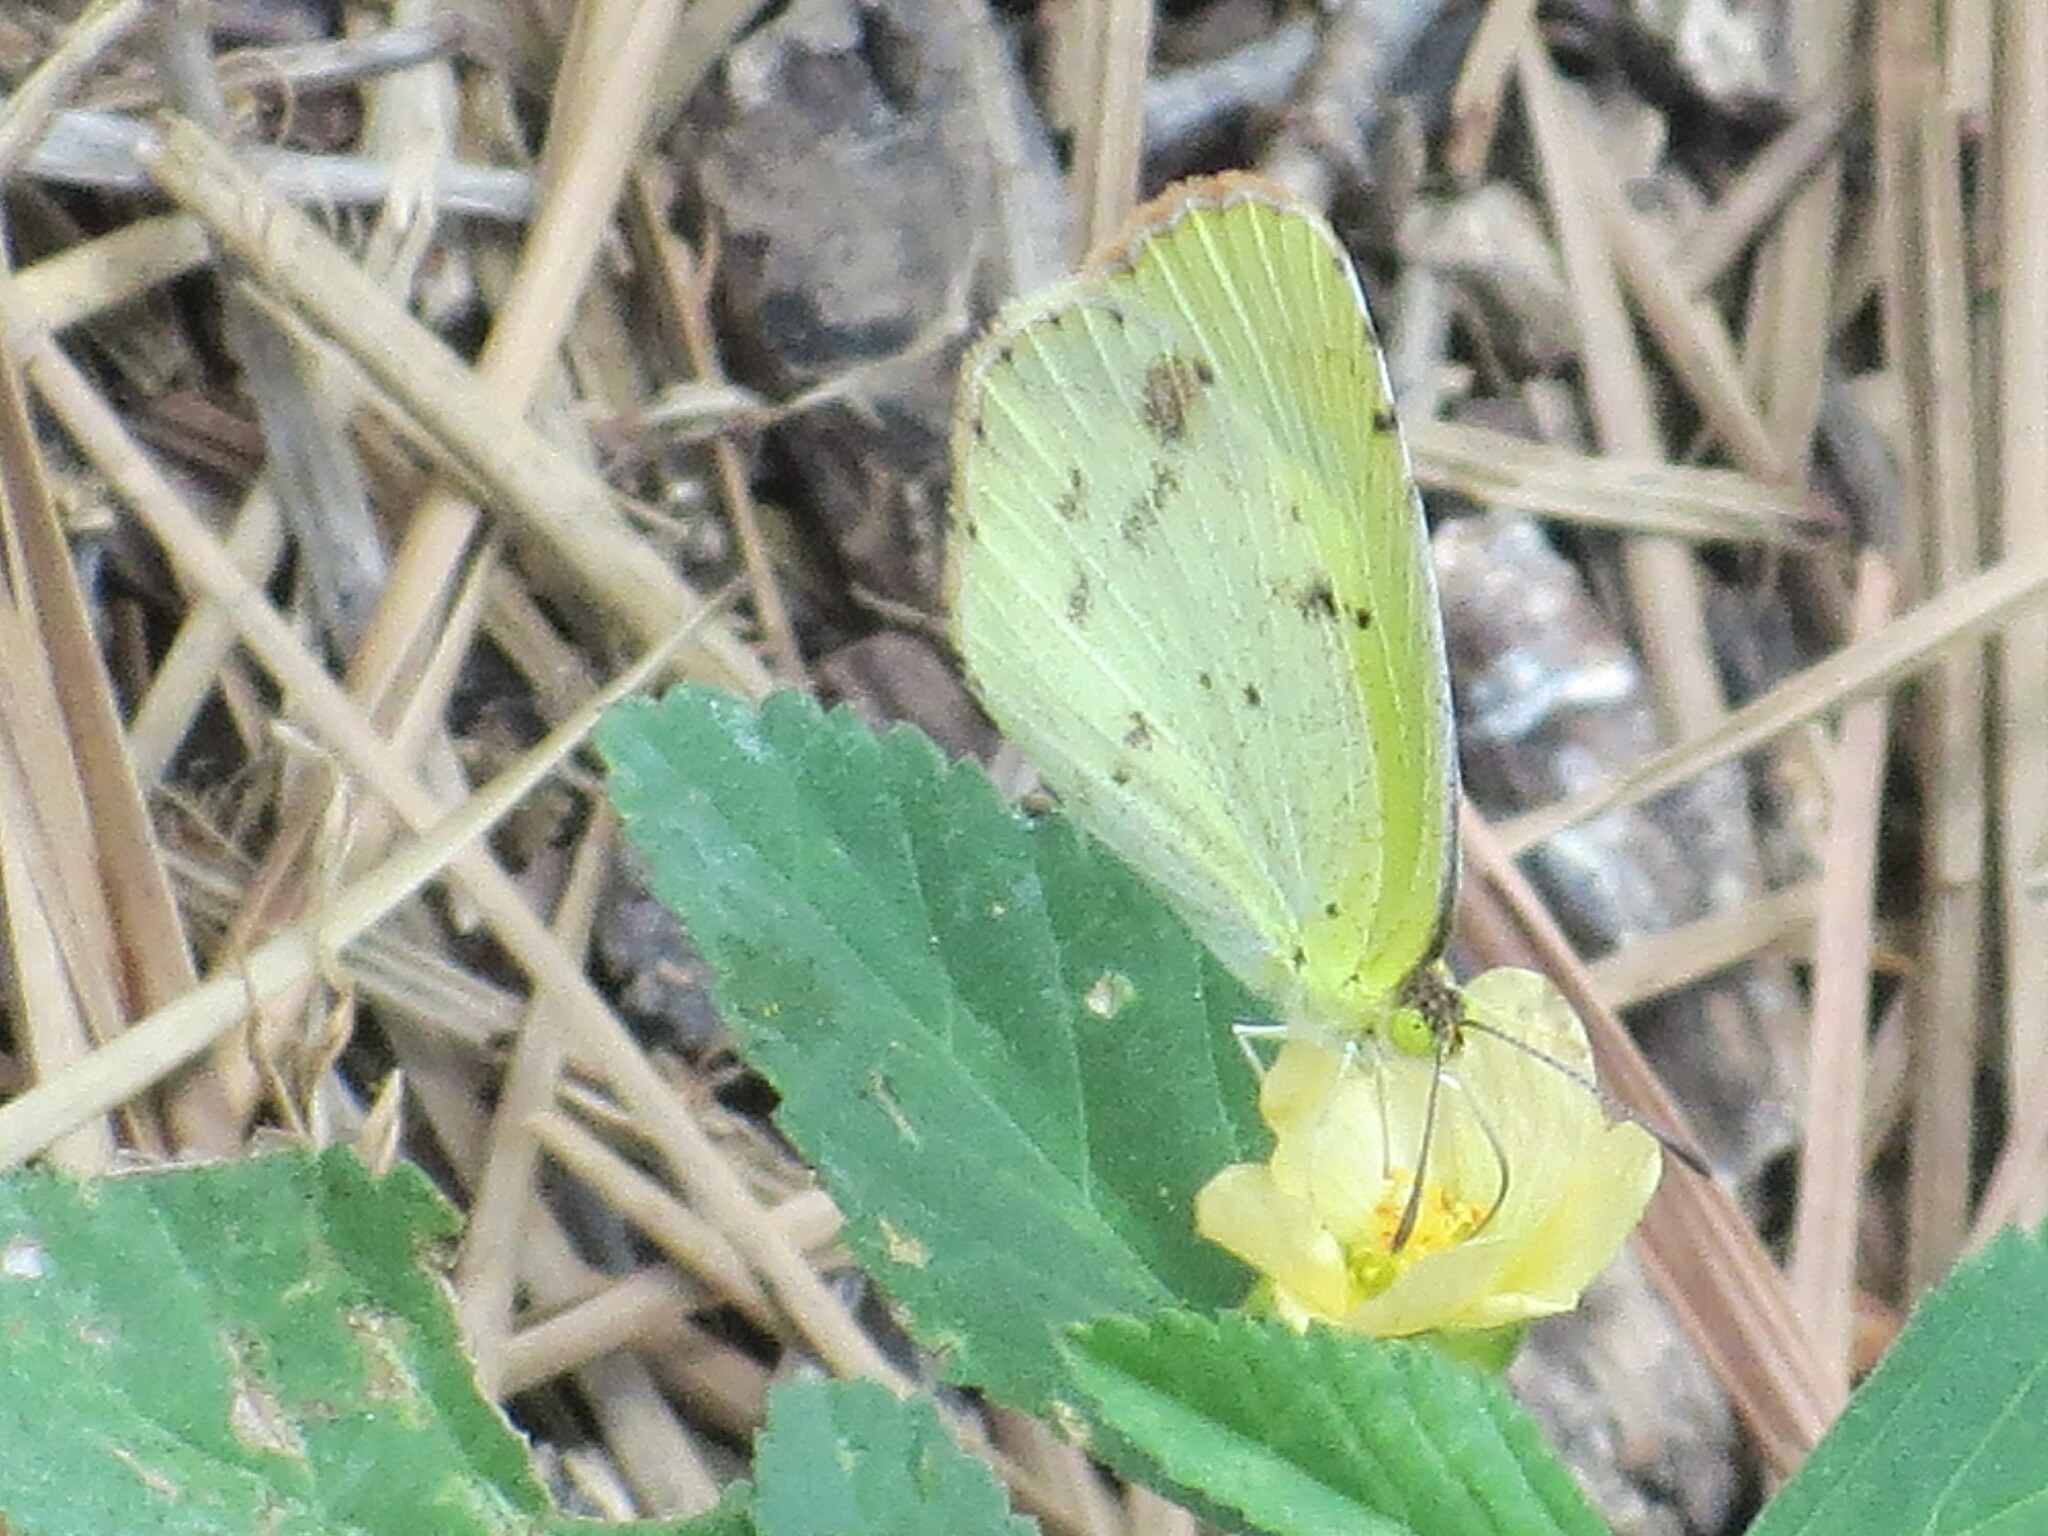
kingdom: Animalia
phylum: Arthropoda
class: Insecta
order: Lepidoptera
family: Pieridae
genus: Pyrisitia
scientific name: Pyrisitia lisa
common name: Little yellow
